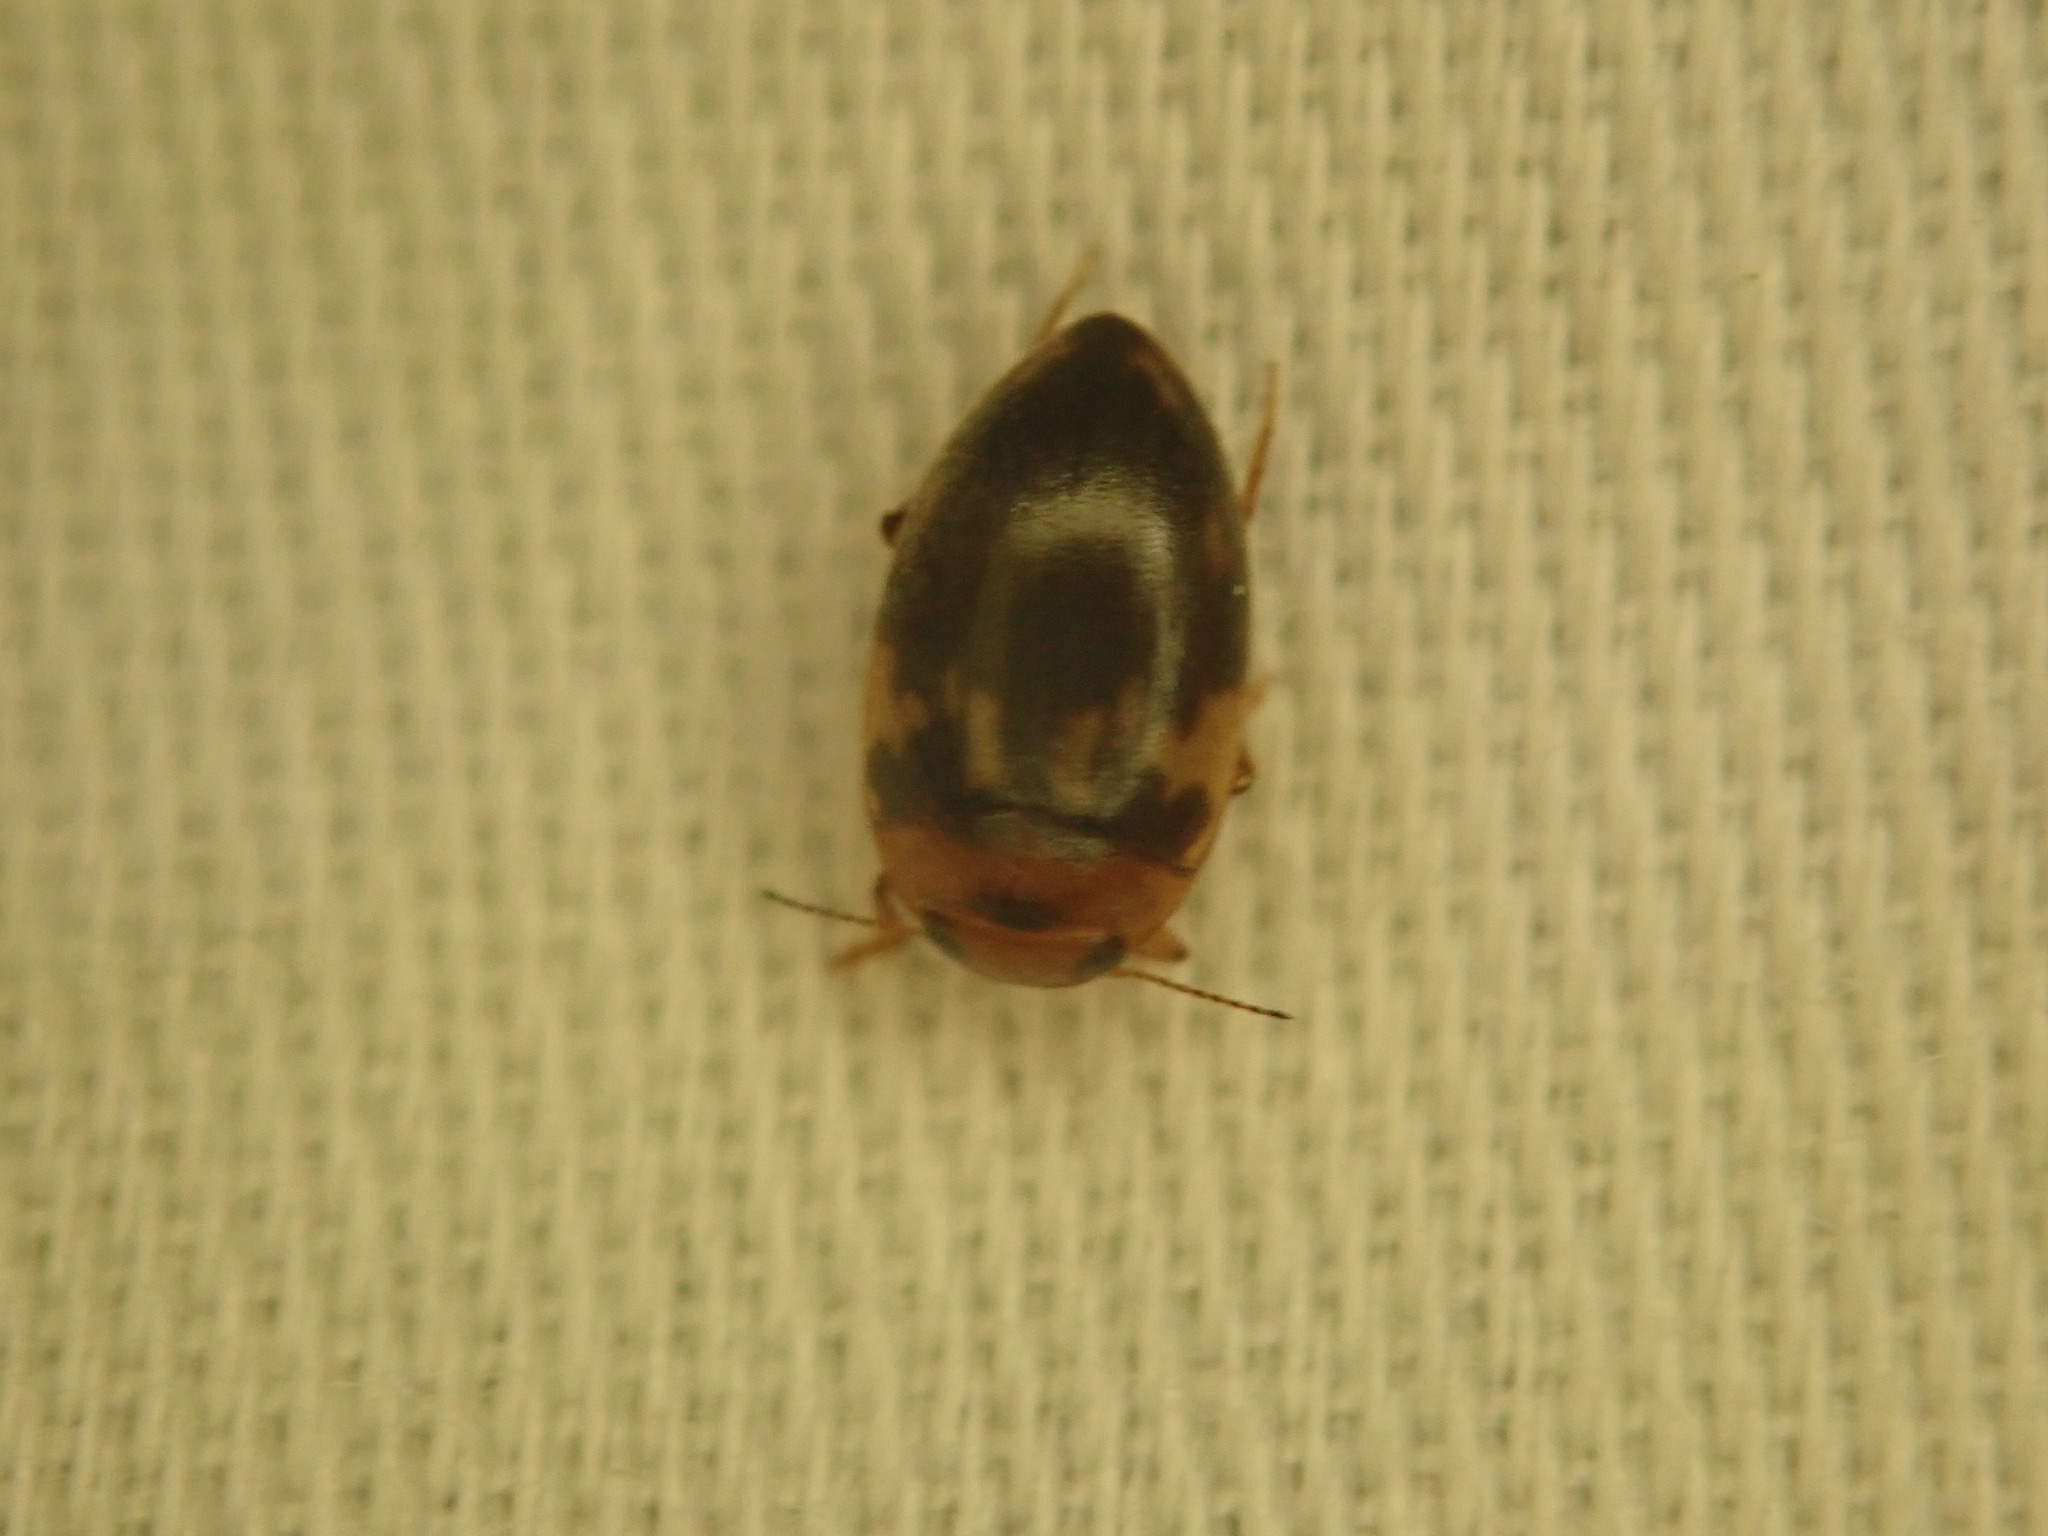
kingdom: Animalia
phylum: Arthropoda
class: Insecta
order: Coleoptera
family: Dytiscidae
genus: Neoporus
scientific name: Neoporus
